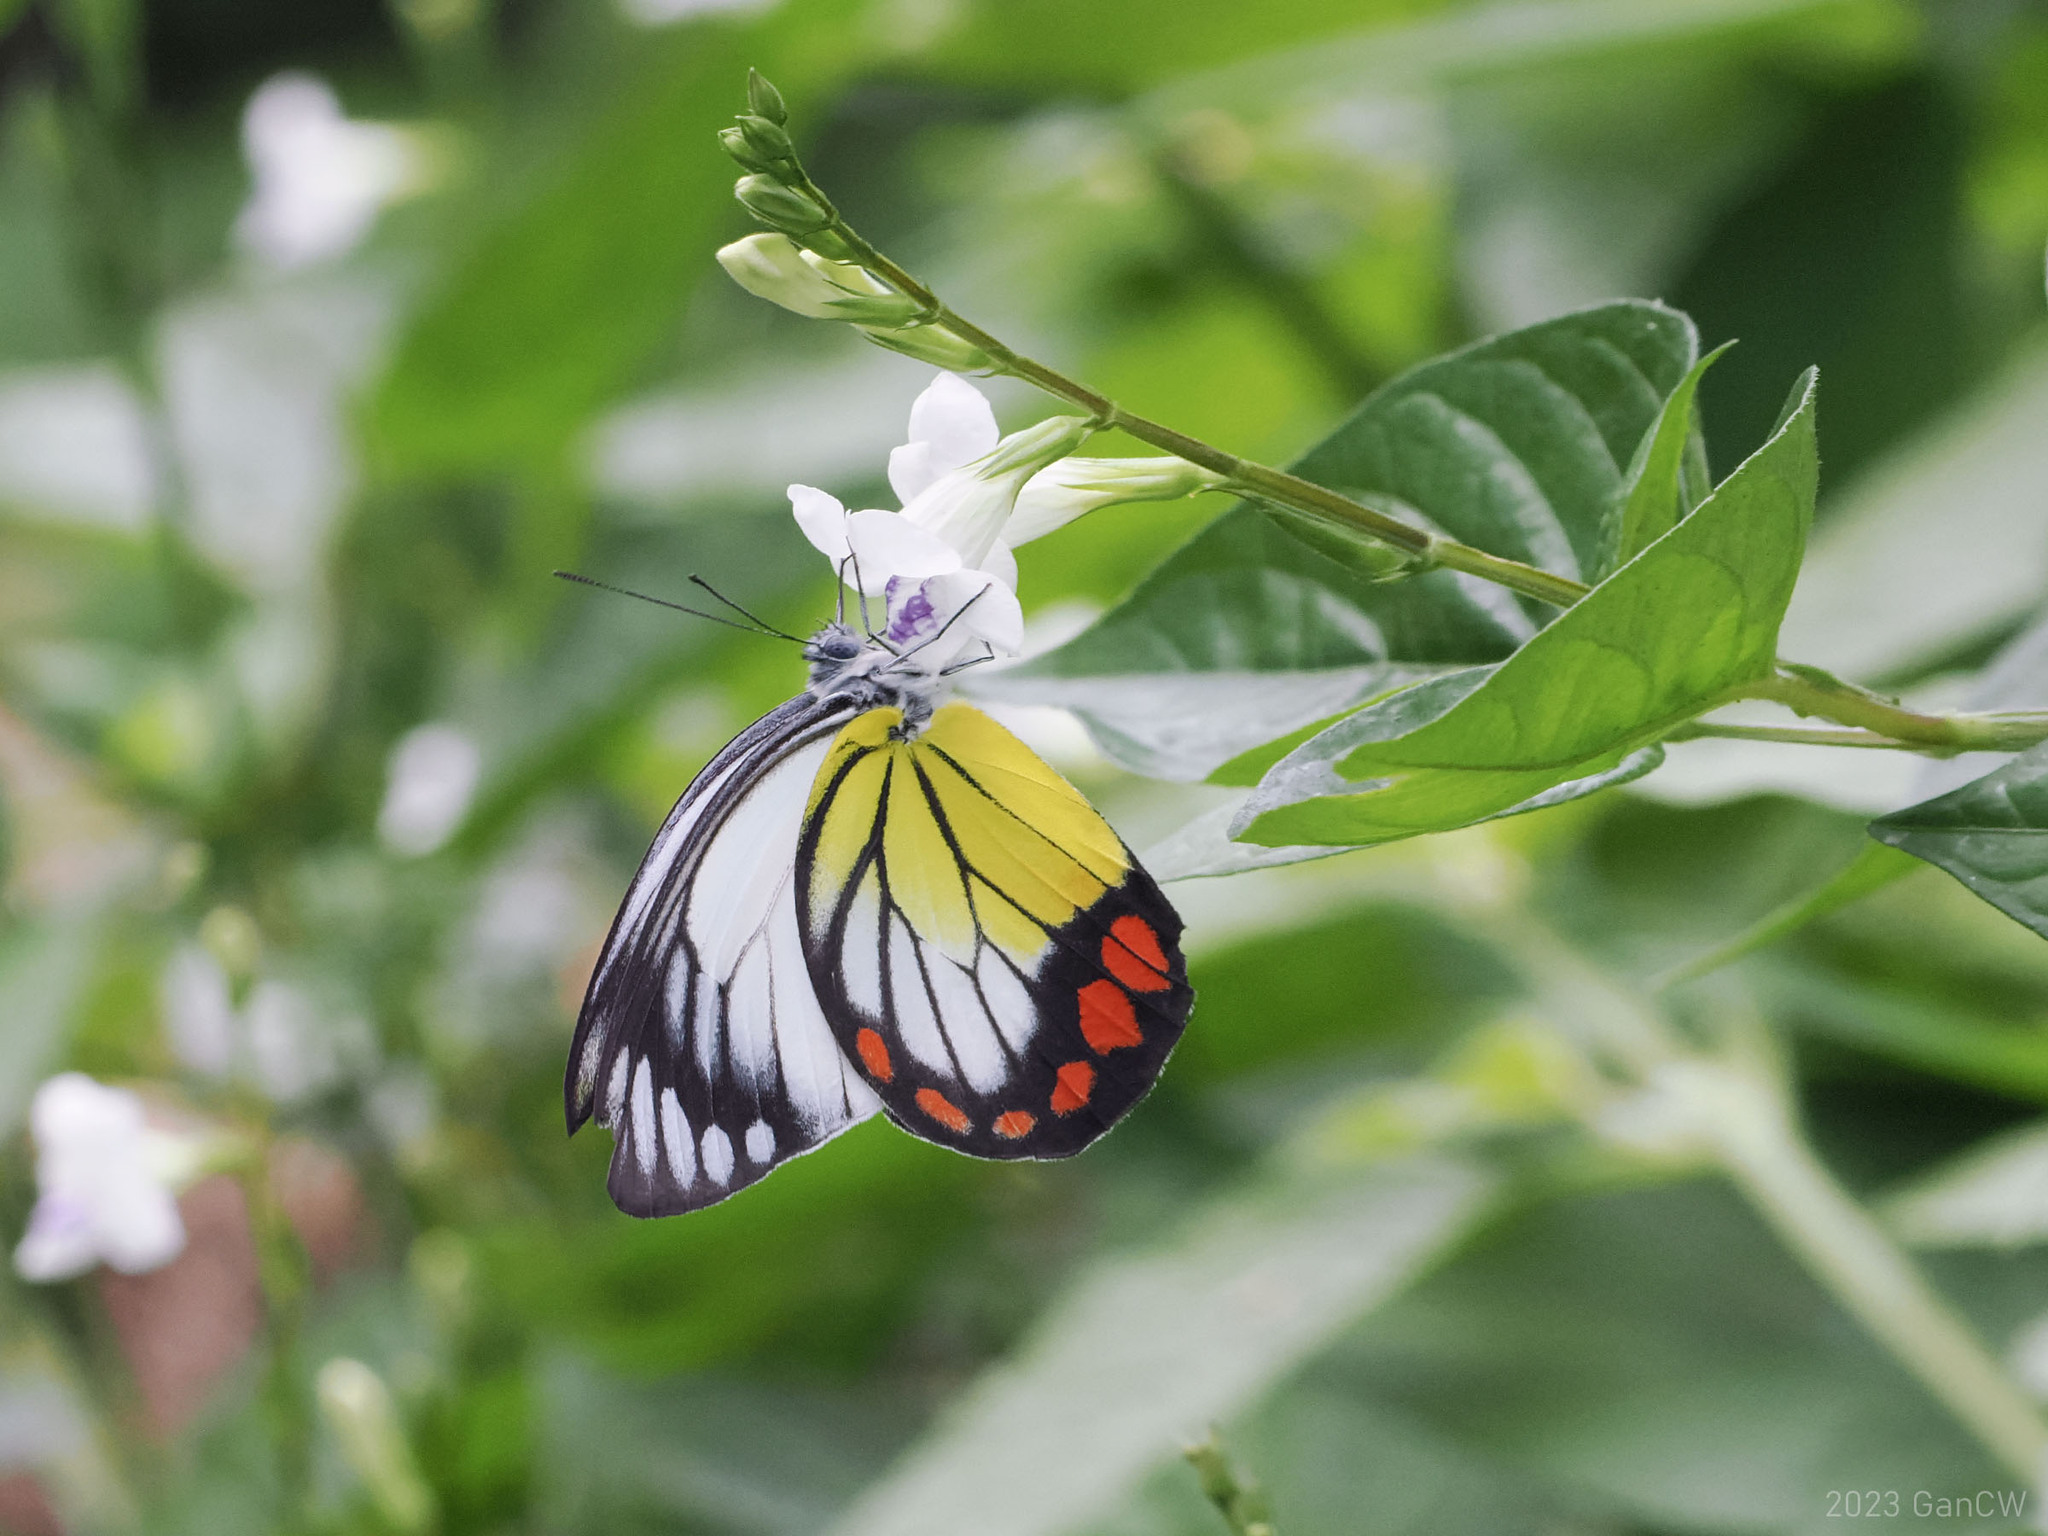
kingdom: Animalia
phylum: Arthropoda
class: Insecta
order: Lepidoptera
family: Pieridae
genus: Delias
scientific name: Delias hyparete
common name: Painted jezebel
